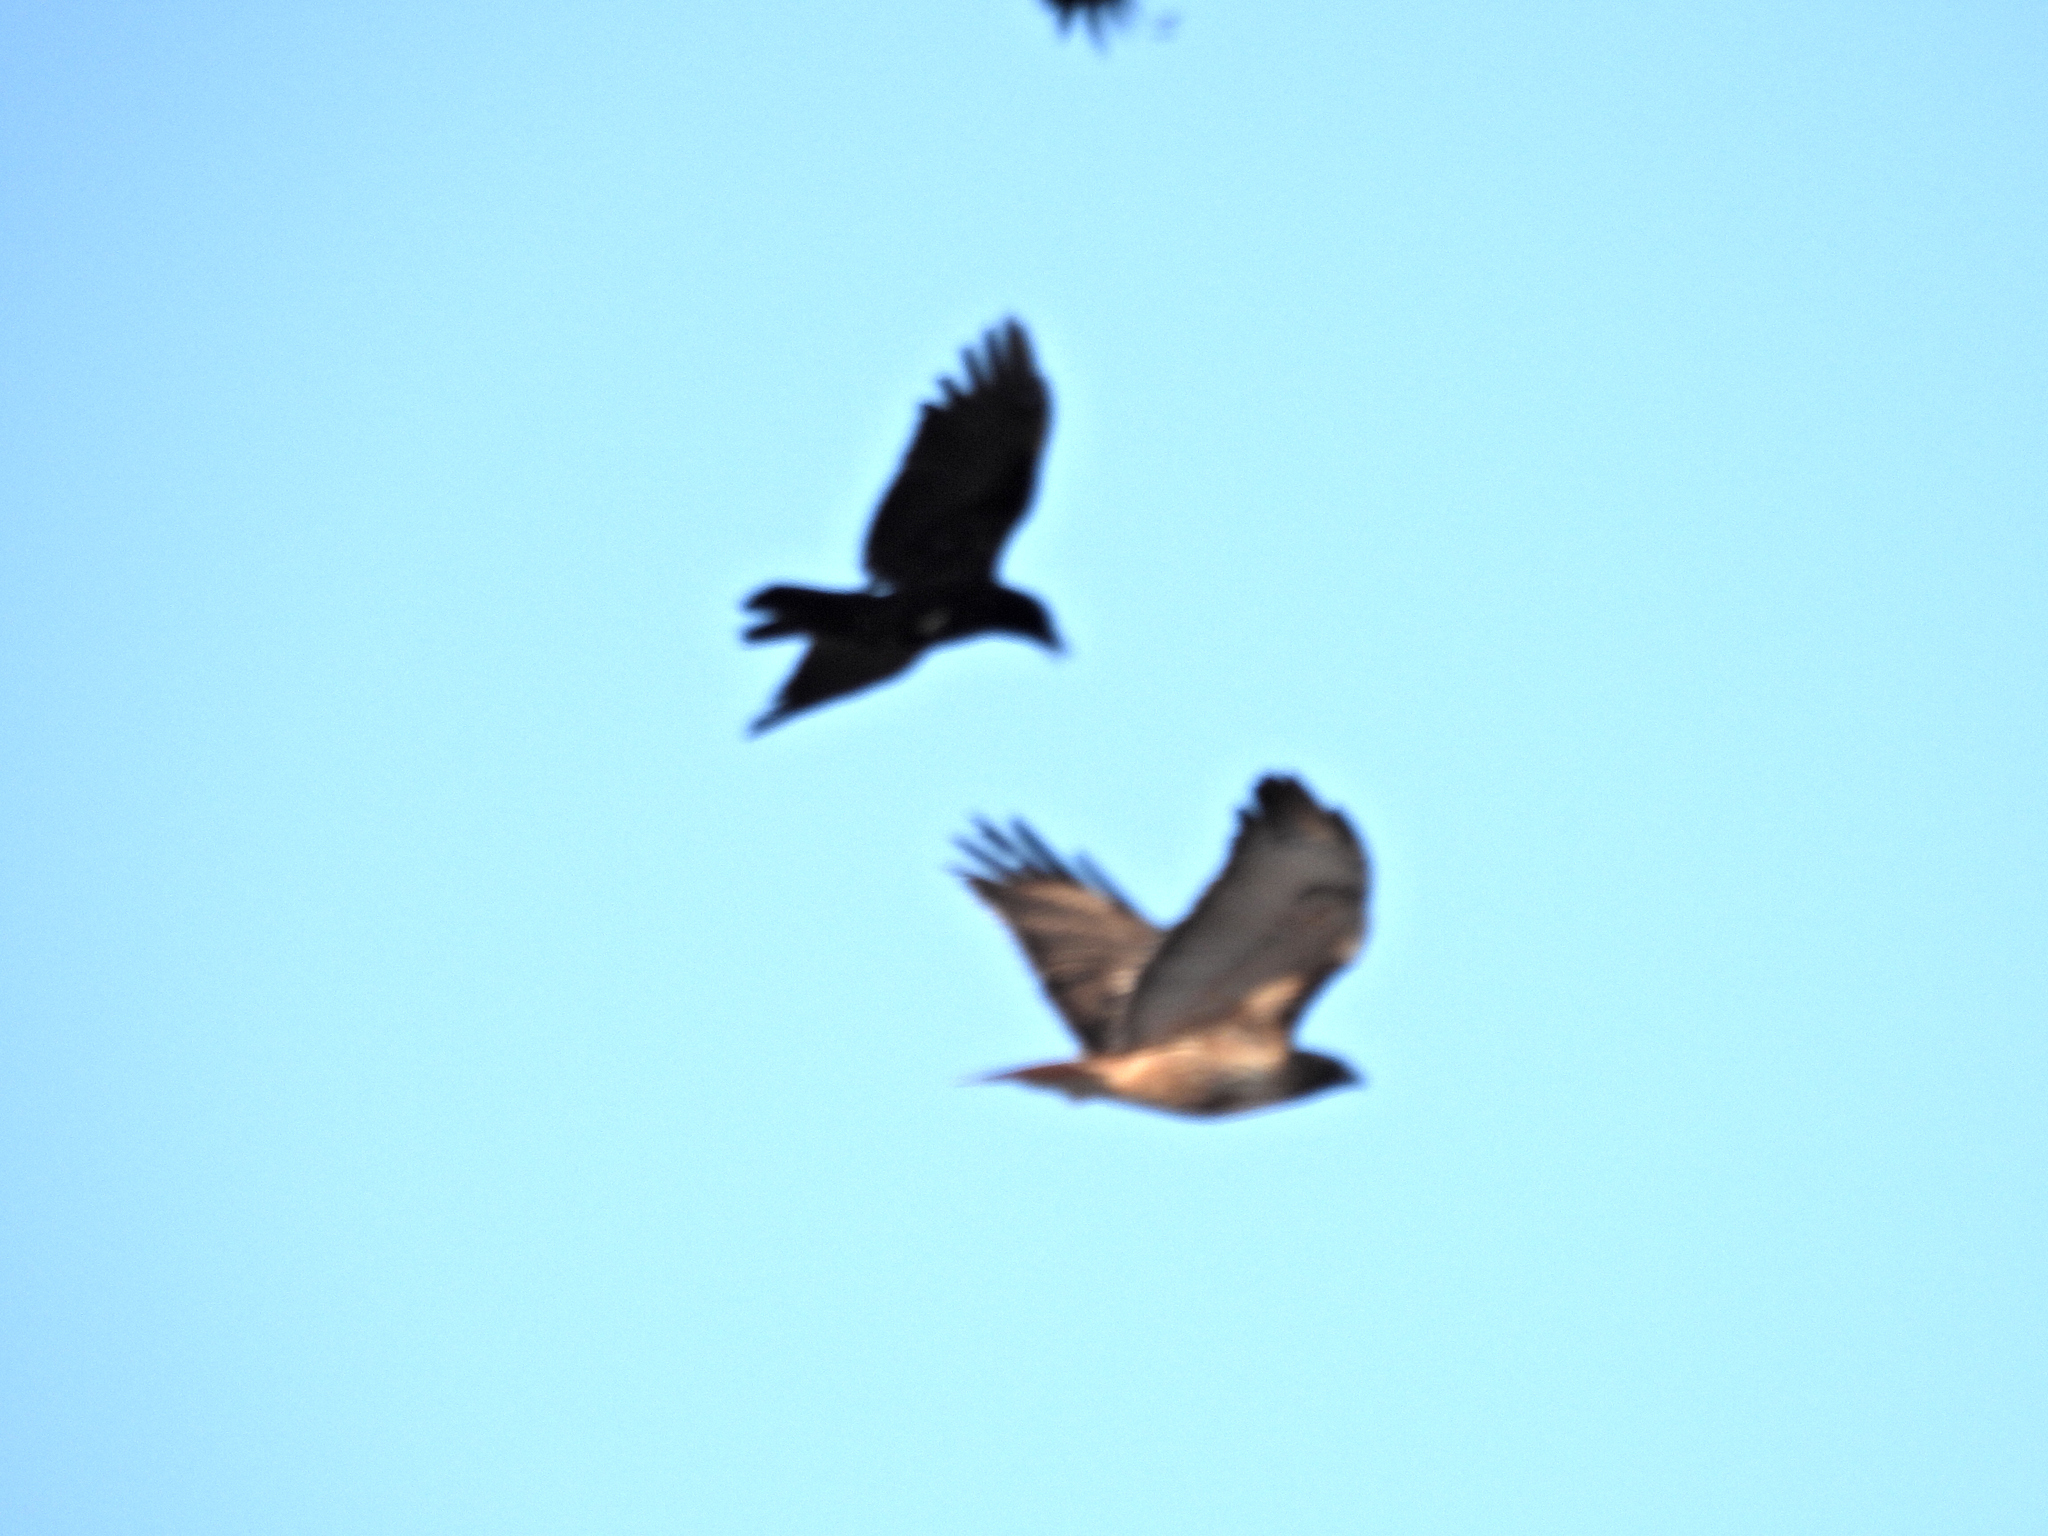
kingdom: Animalia
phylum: Chordata
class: Aves
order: Accipitriformes
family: Accipitridae
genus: Buteo
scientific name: Buteo jamaicensis
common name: Red-tailed hawk
